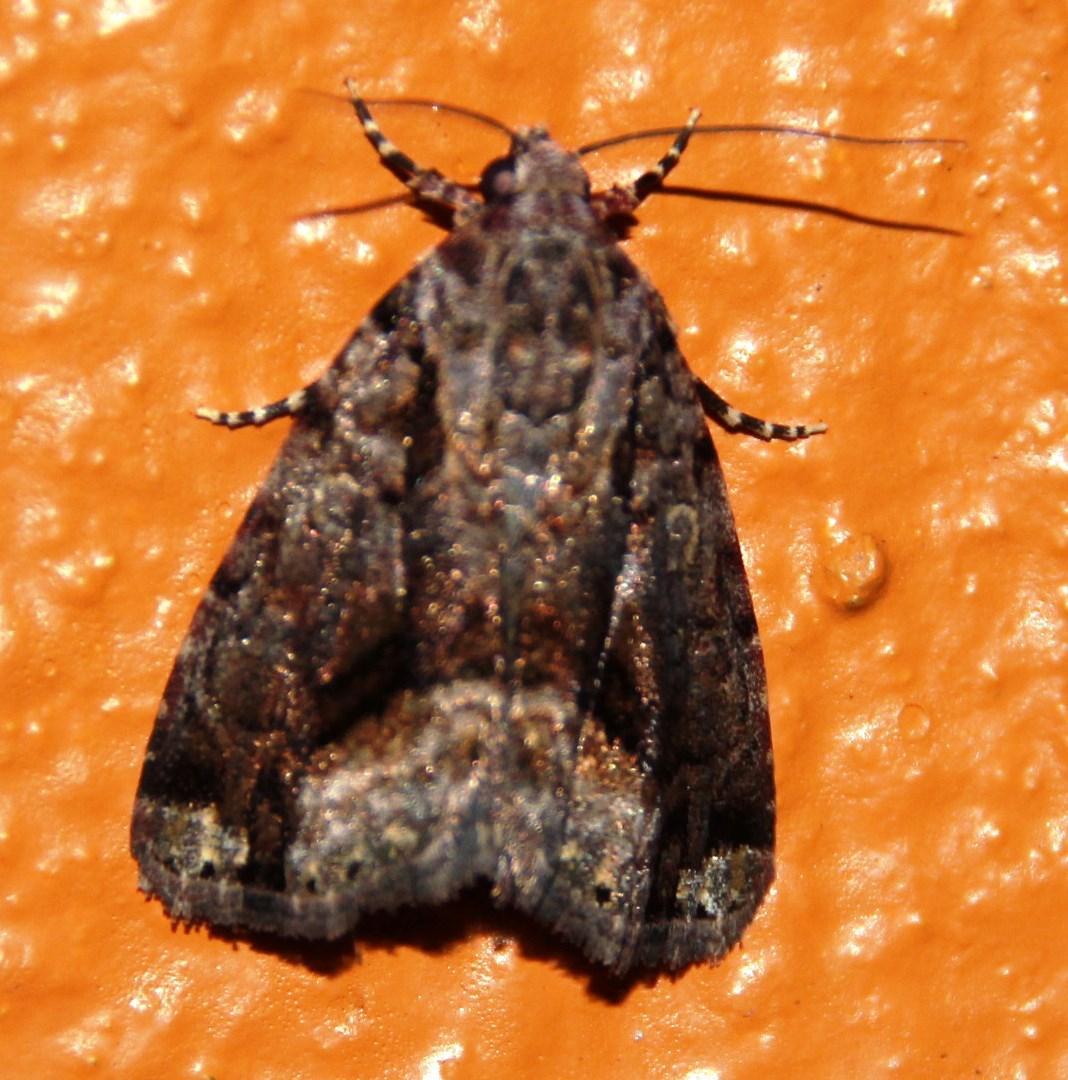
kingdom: Animalia
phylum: Arthropoda
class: Insecta
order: Lepidoptera
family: Noctuidae
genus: Iambia
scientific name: Iambia jansei
